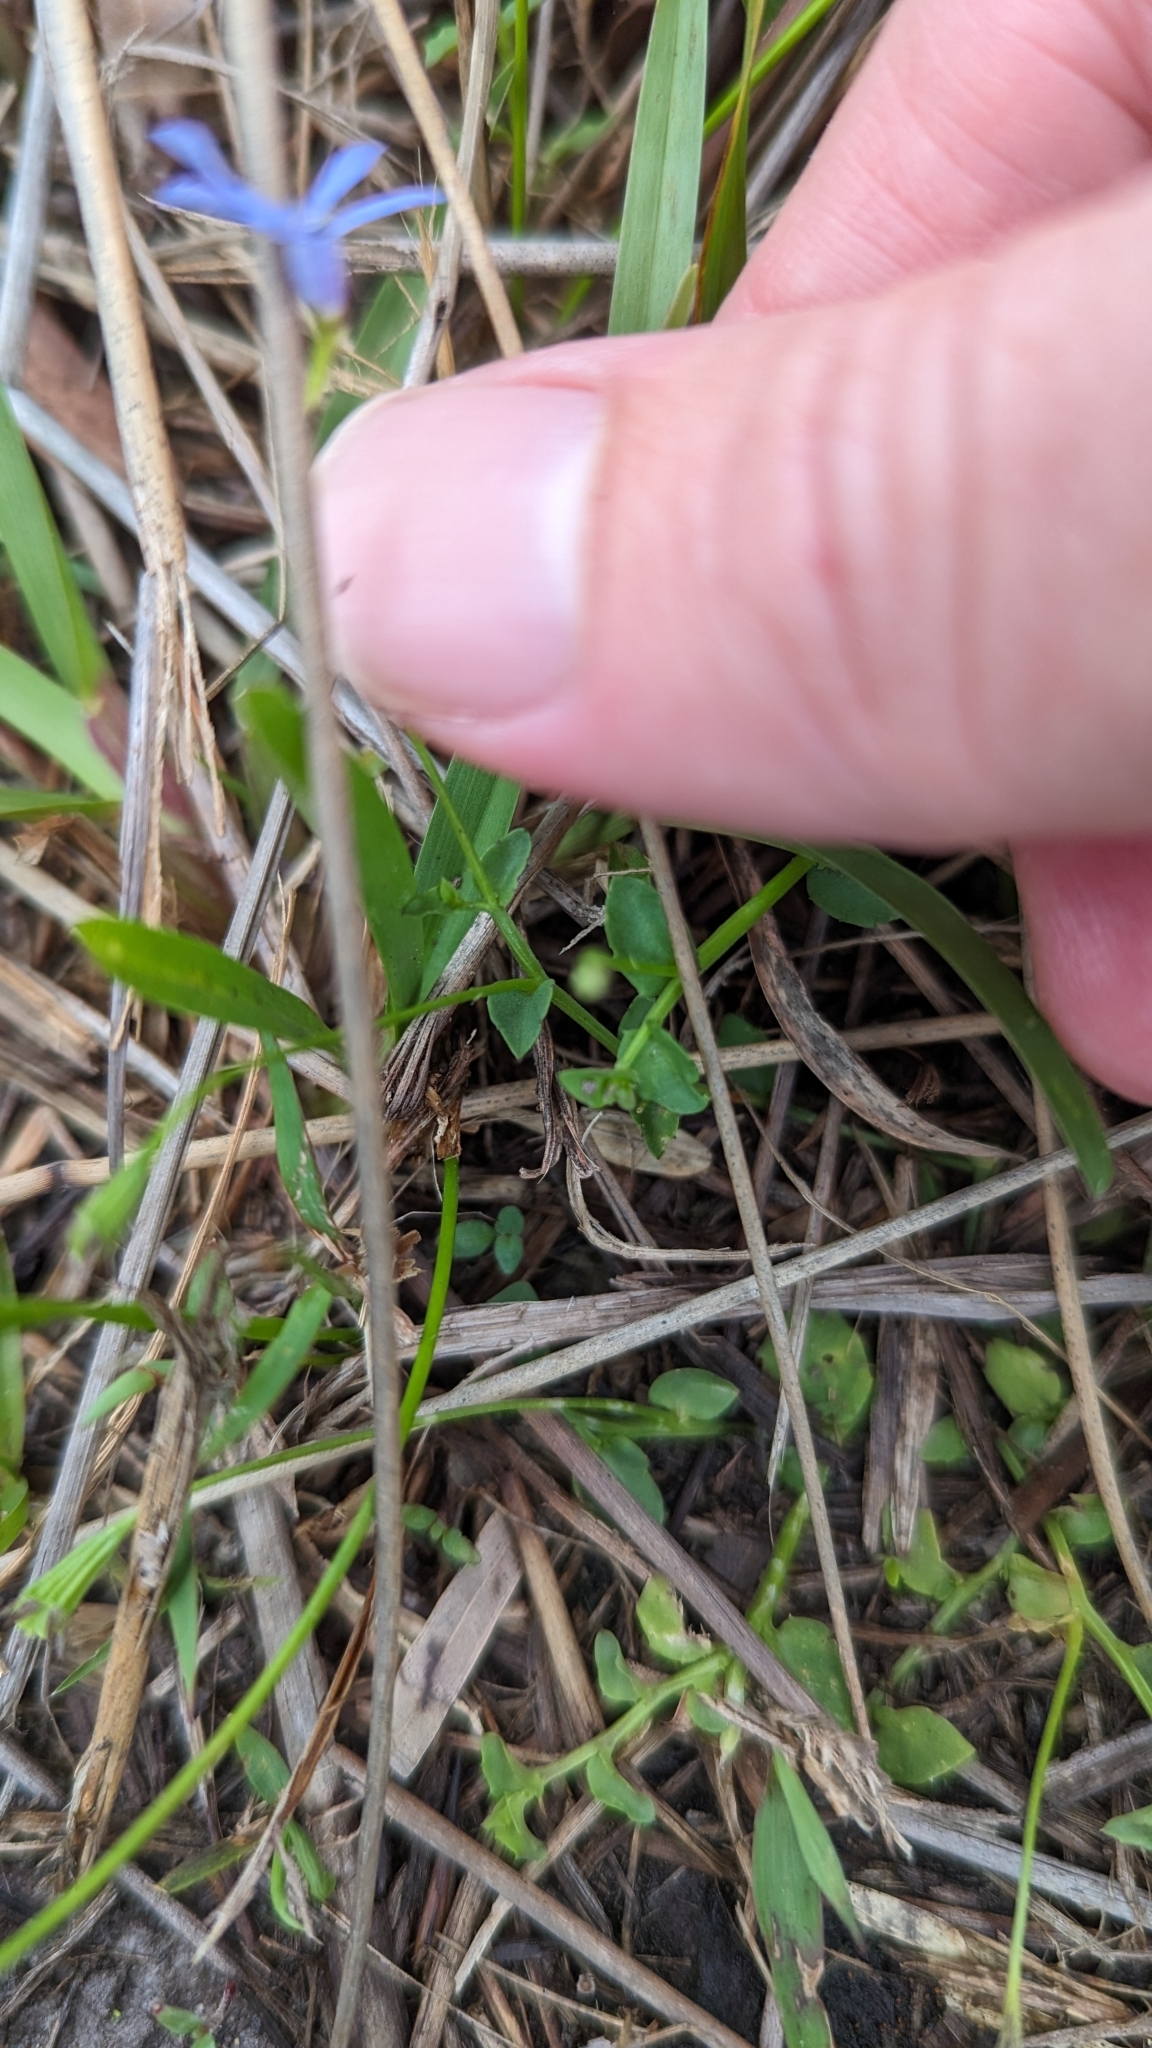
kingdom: Plantae
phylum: Tracheophyta
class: Magnoliopsida
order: Asterales
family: Campanulaceae
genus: Lobelia
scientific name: Lobelia quadrangularis
